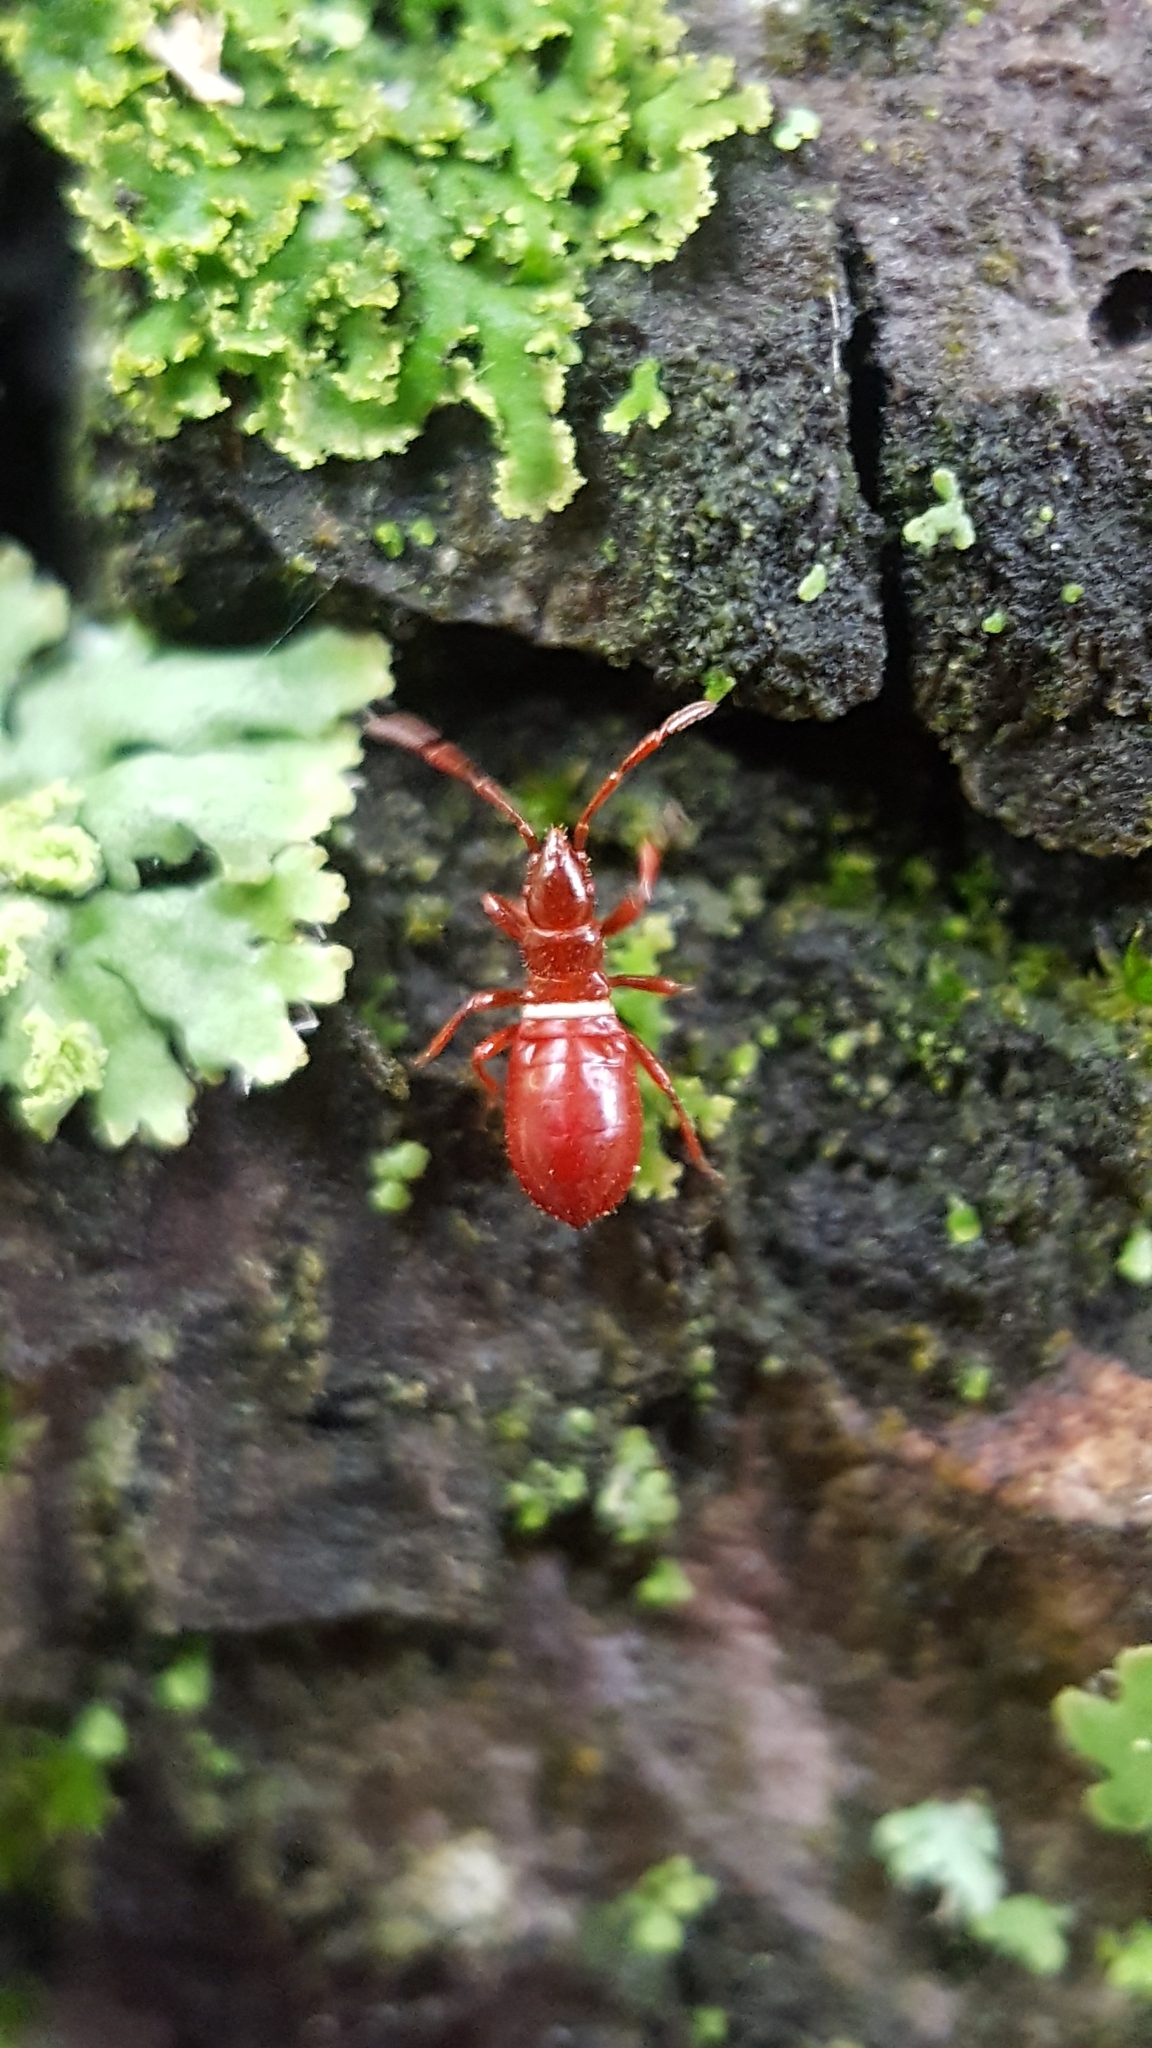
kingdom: Animalia
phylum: Arthropoda
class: Insecta
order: Hemiptera
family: Oxycarenidae
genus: Oxycarenus
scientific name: Oxycarenus lavaterae
